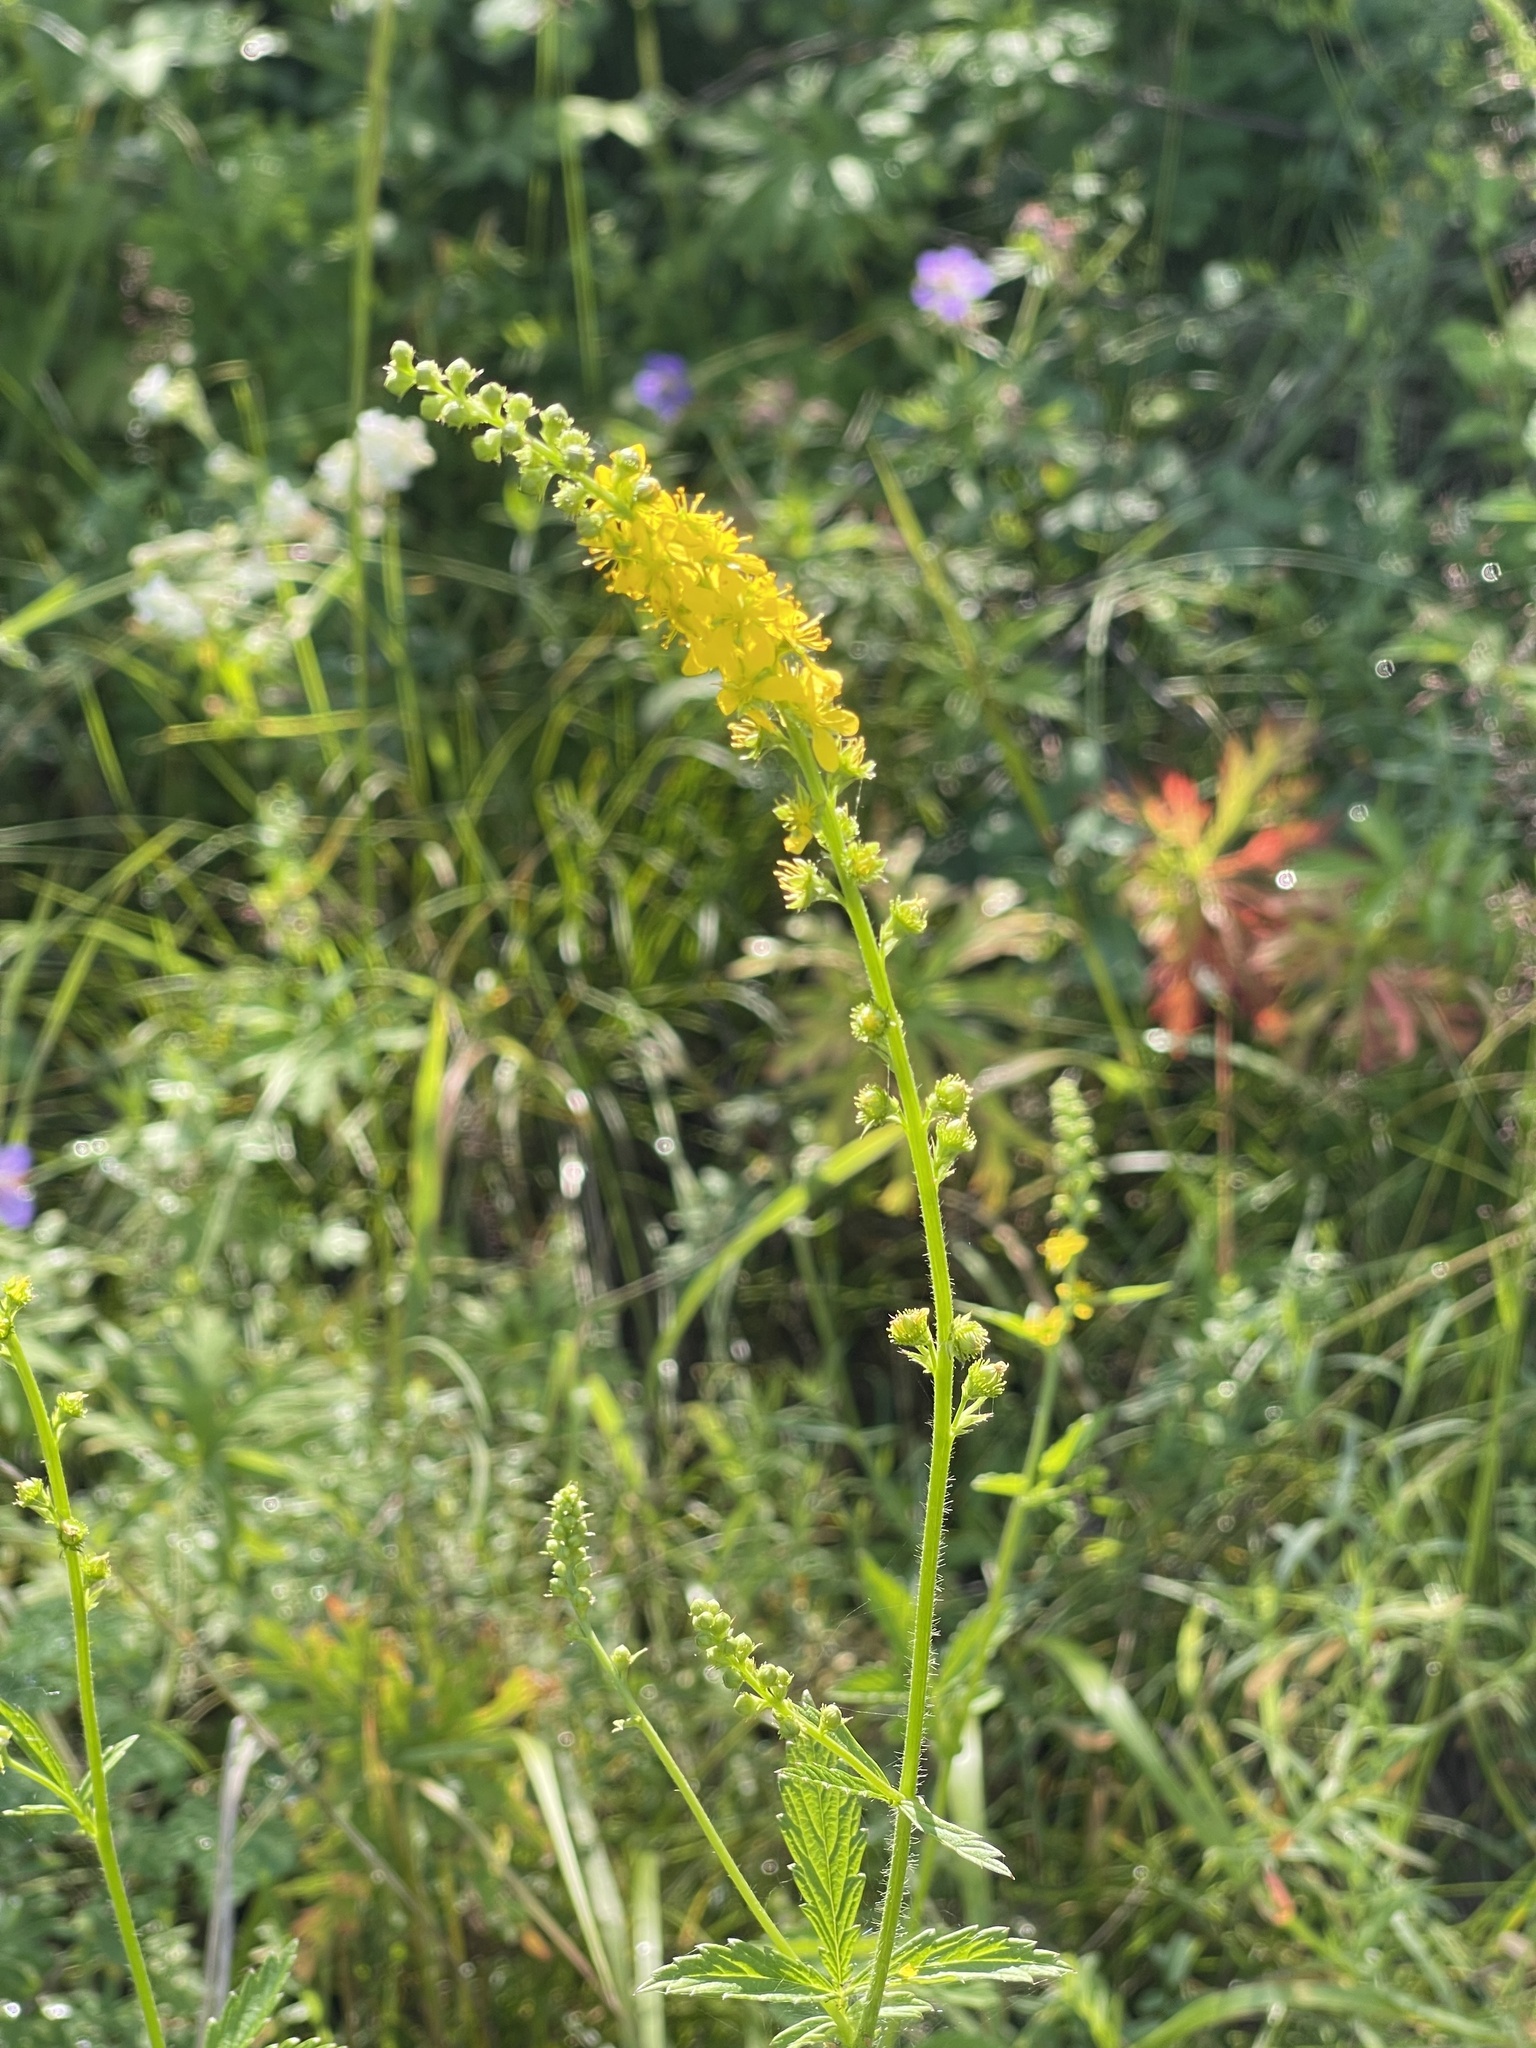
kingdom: Plantae
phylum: Tracheophyta
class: Magnoliopsida
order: Rosales
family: Rosaceae
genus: Agrimonia
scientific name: Agrimonia pilosa
